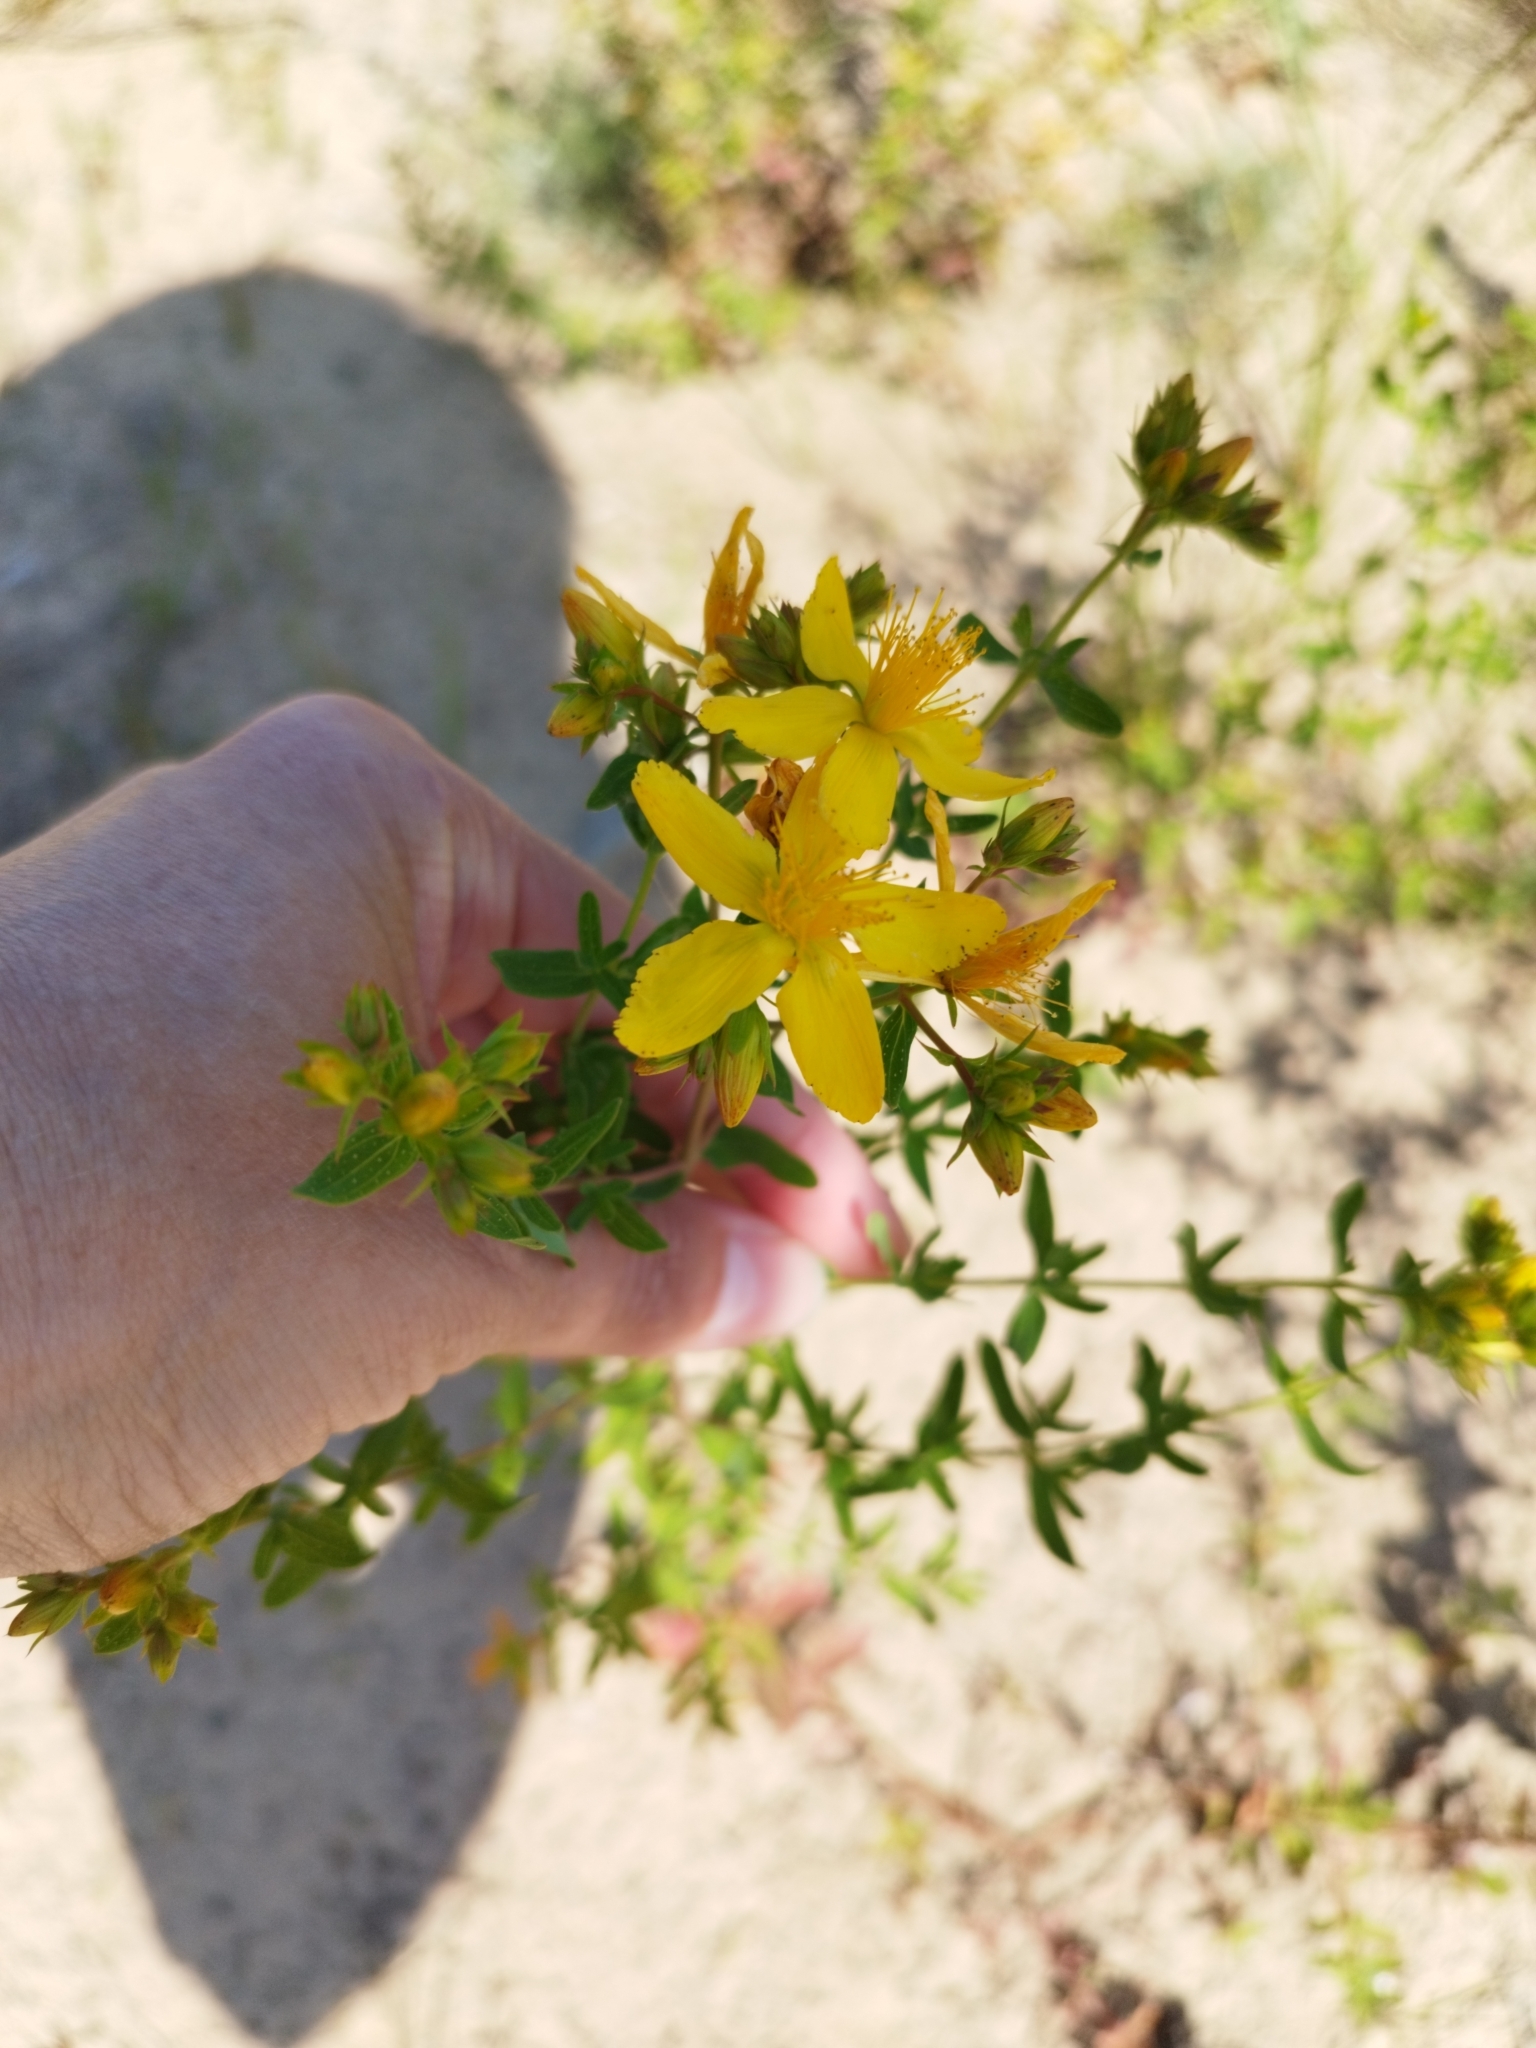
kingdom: Plantae
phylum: Tracheophyta
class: Magnoliopsida
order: Malpighiales
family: Hypericaceae
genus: Hypericum
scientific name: Hypericum perforatum
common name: Common st. johnswort
